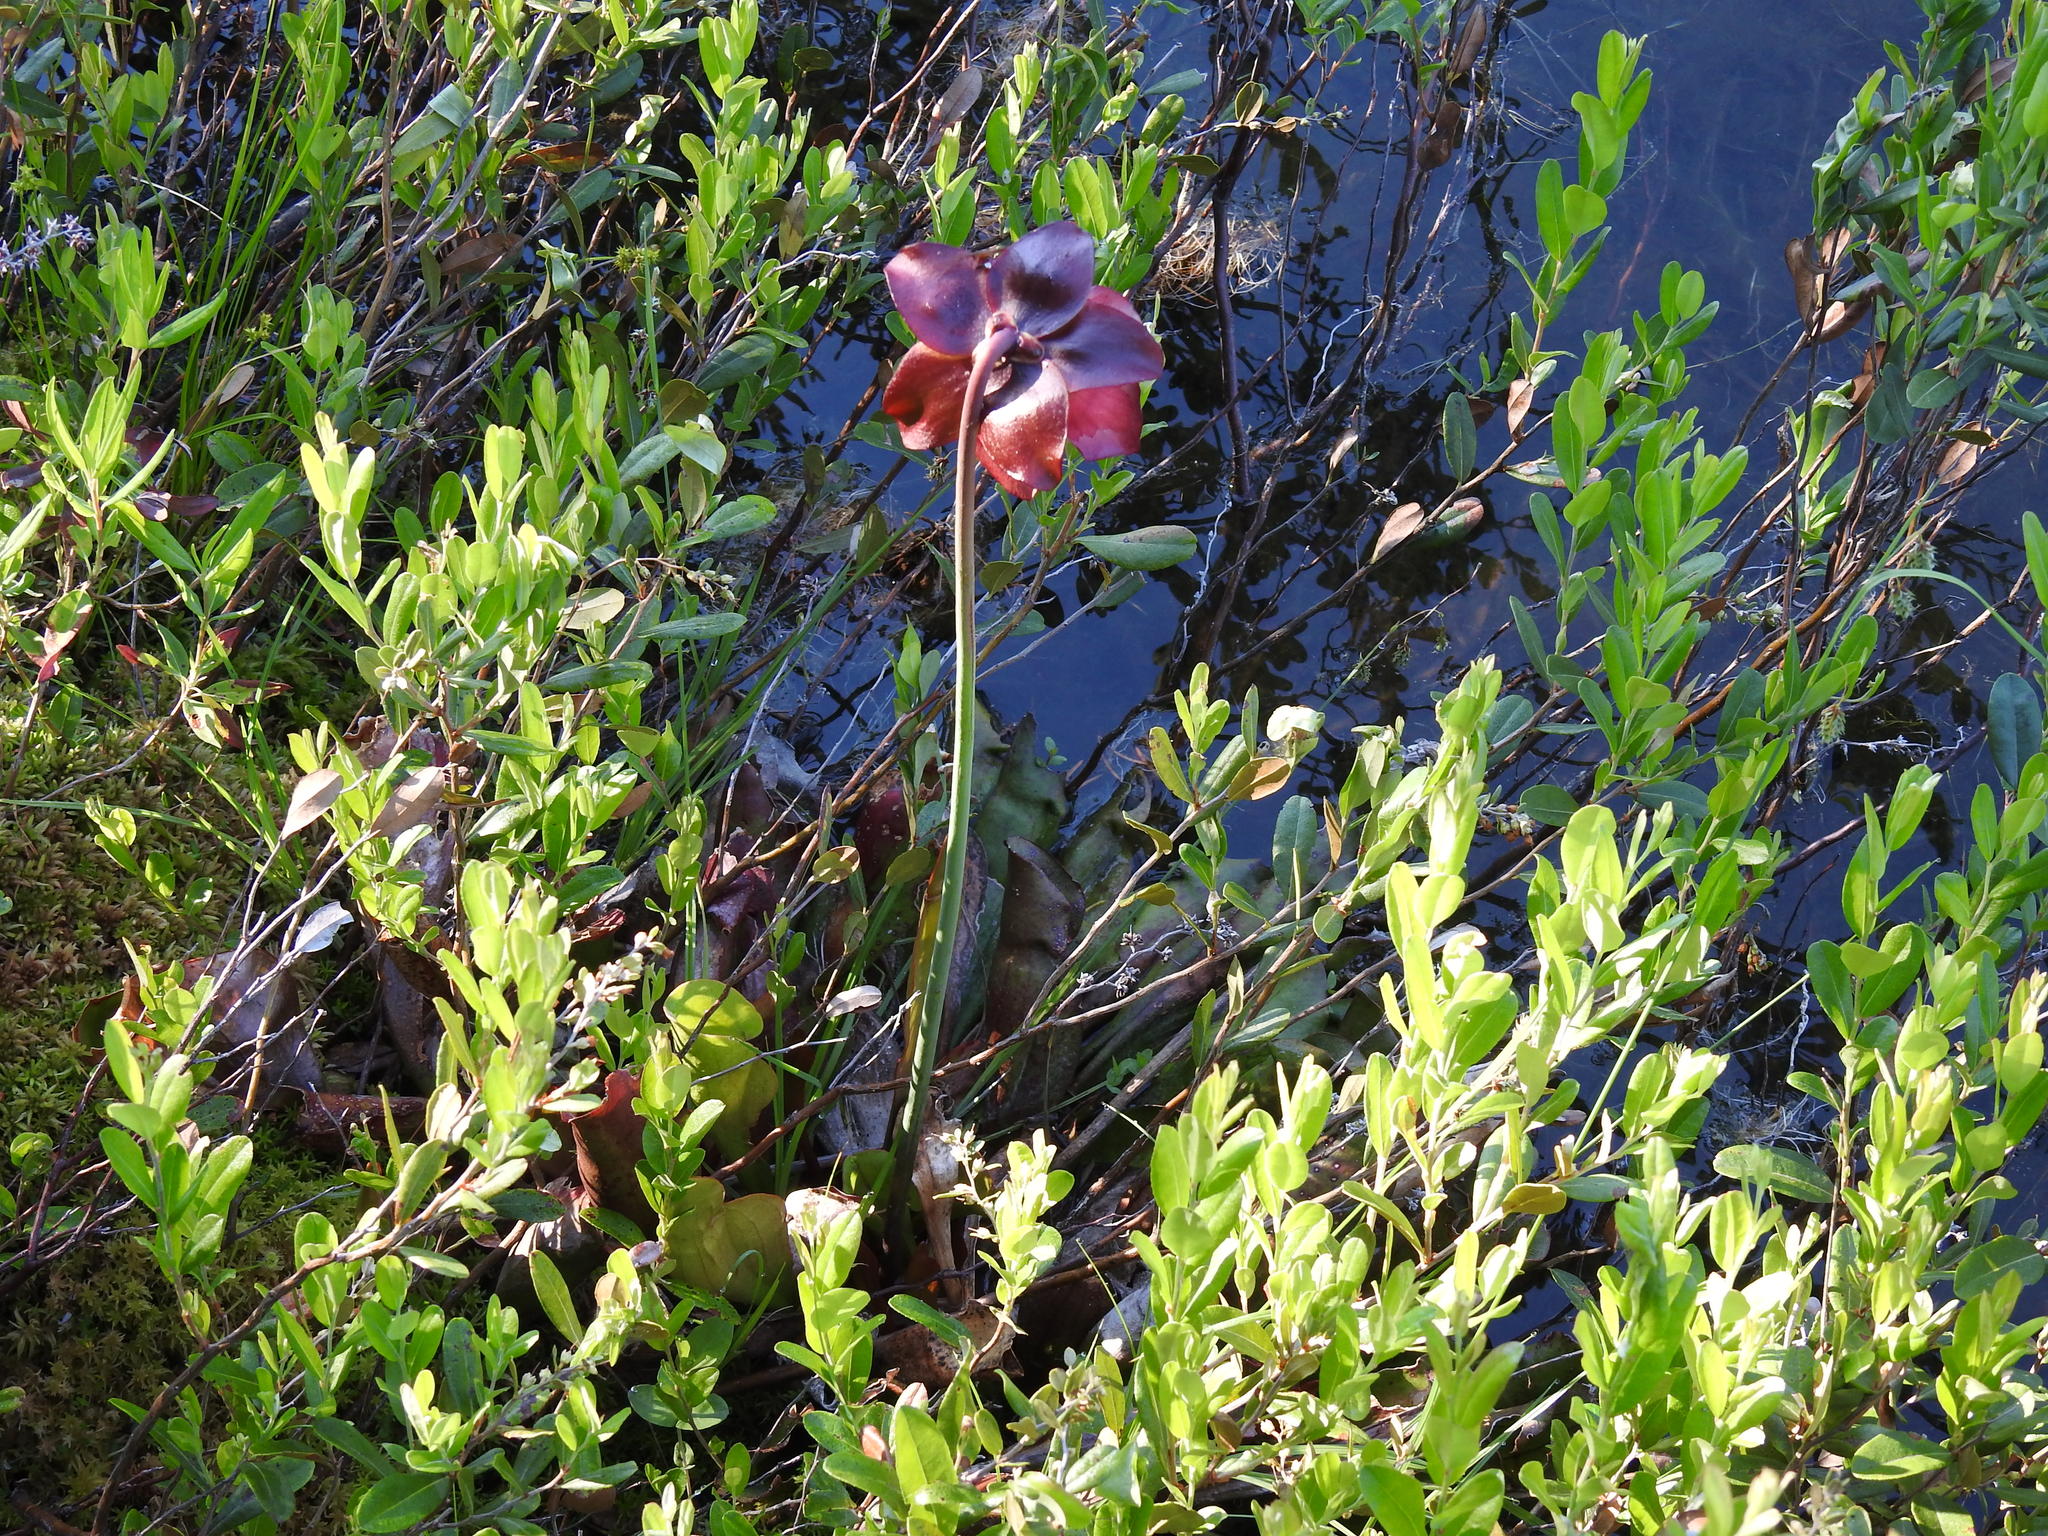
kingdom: Plantae
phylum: Tracheophyta
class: Magnoliopsida
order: Ericales
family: Sarraceniaceae
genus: Sarracenia
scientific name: Sarracenia purpurea
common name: Pitcherplant
